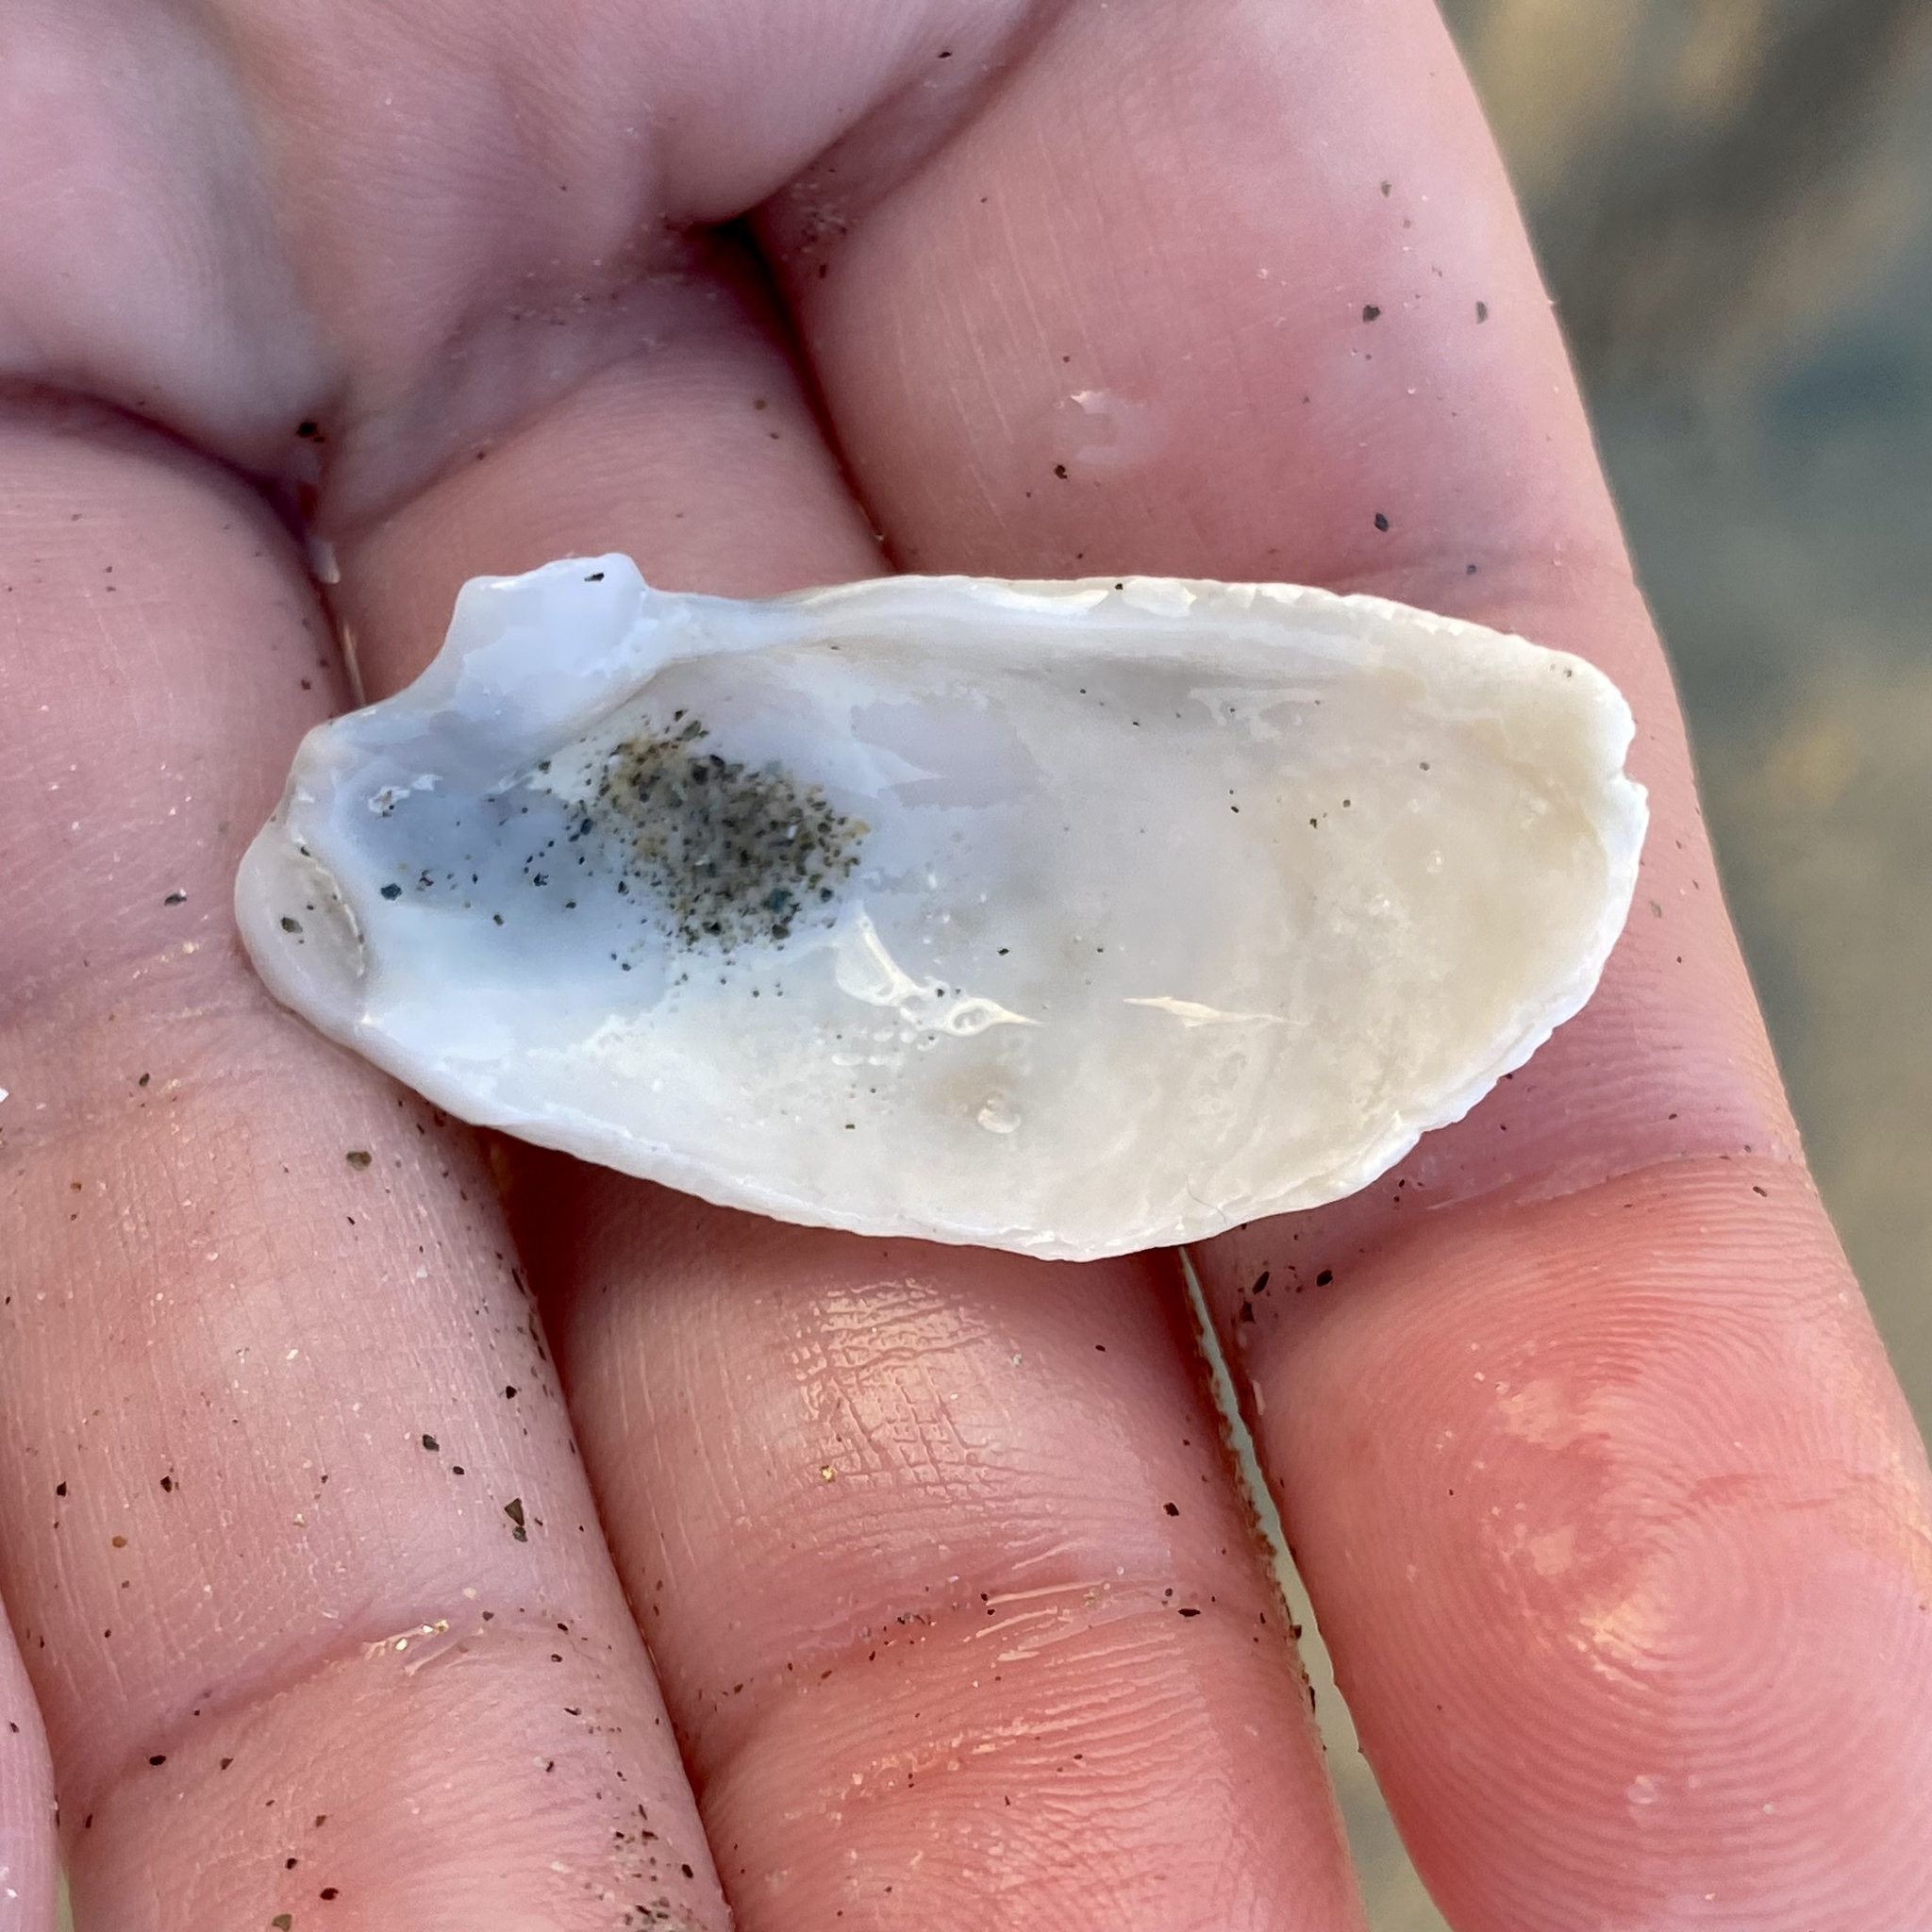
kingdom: Animalia
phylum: Mollusca
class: Bivalvia
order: Myida
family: Myidae
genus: Platyodon
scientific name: Platyodon cancellatus
